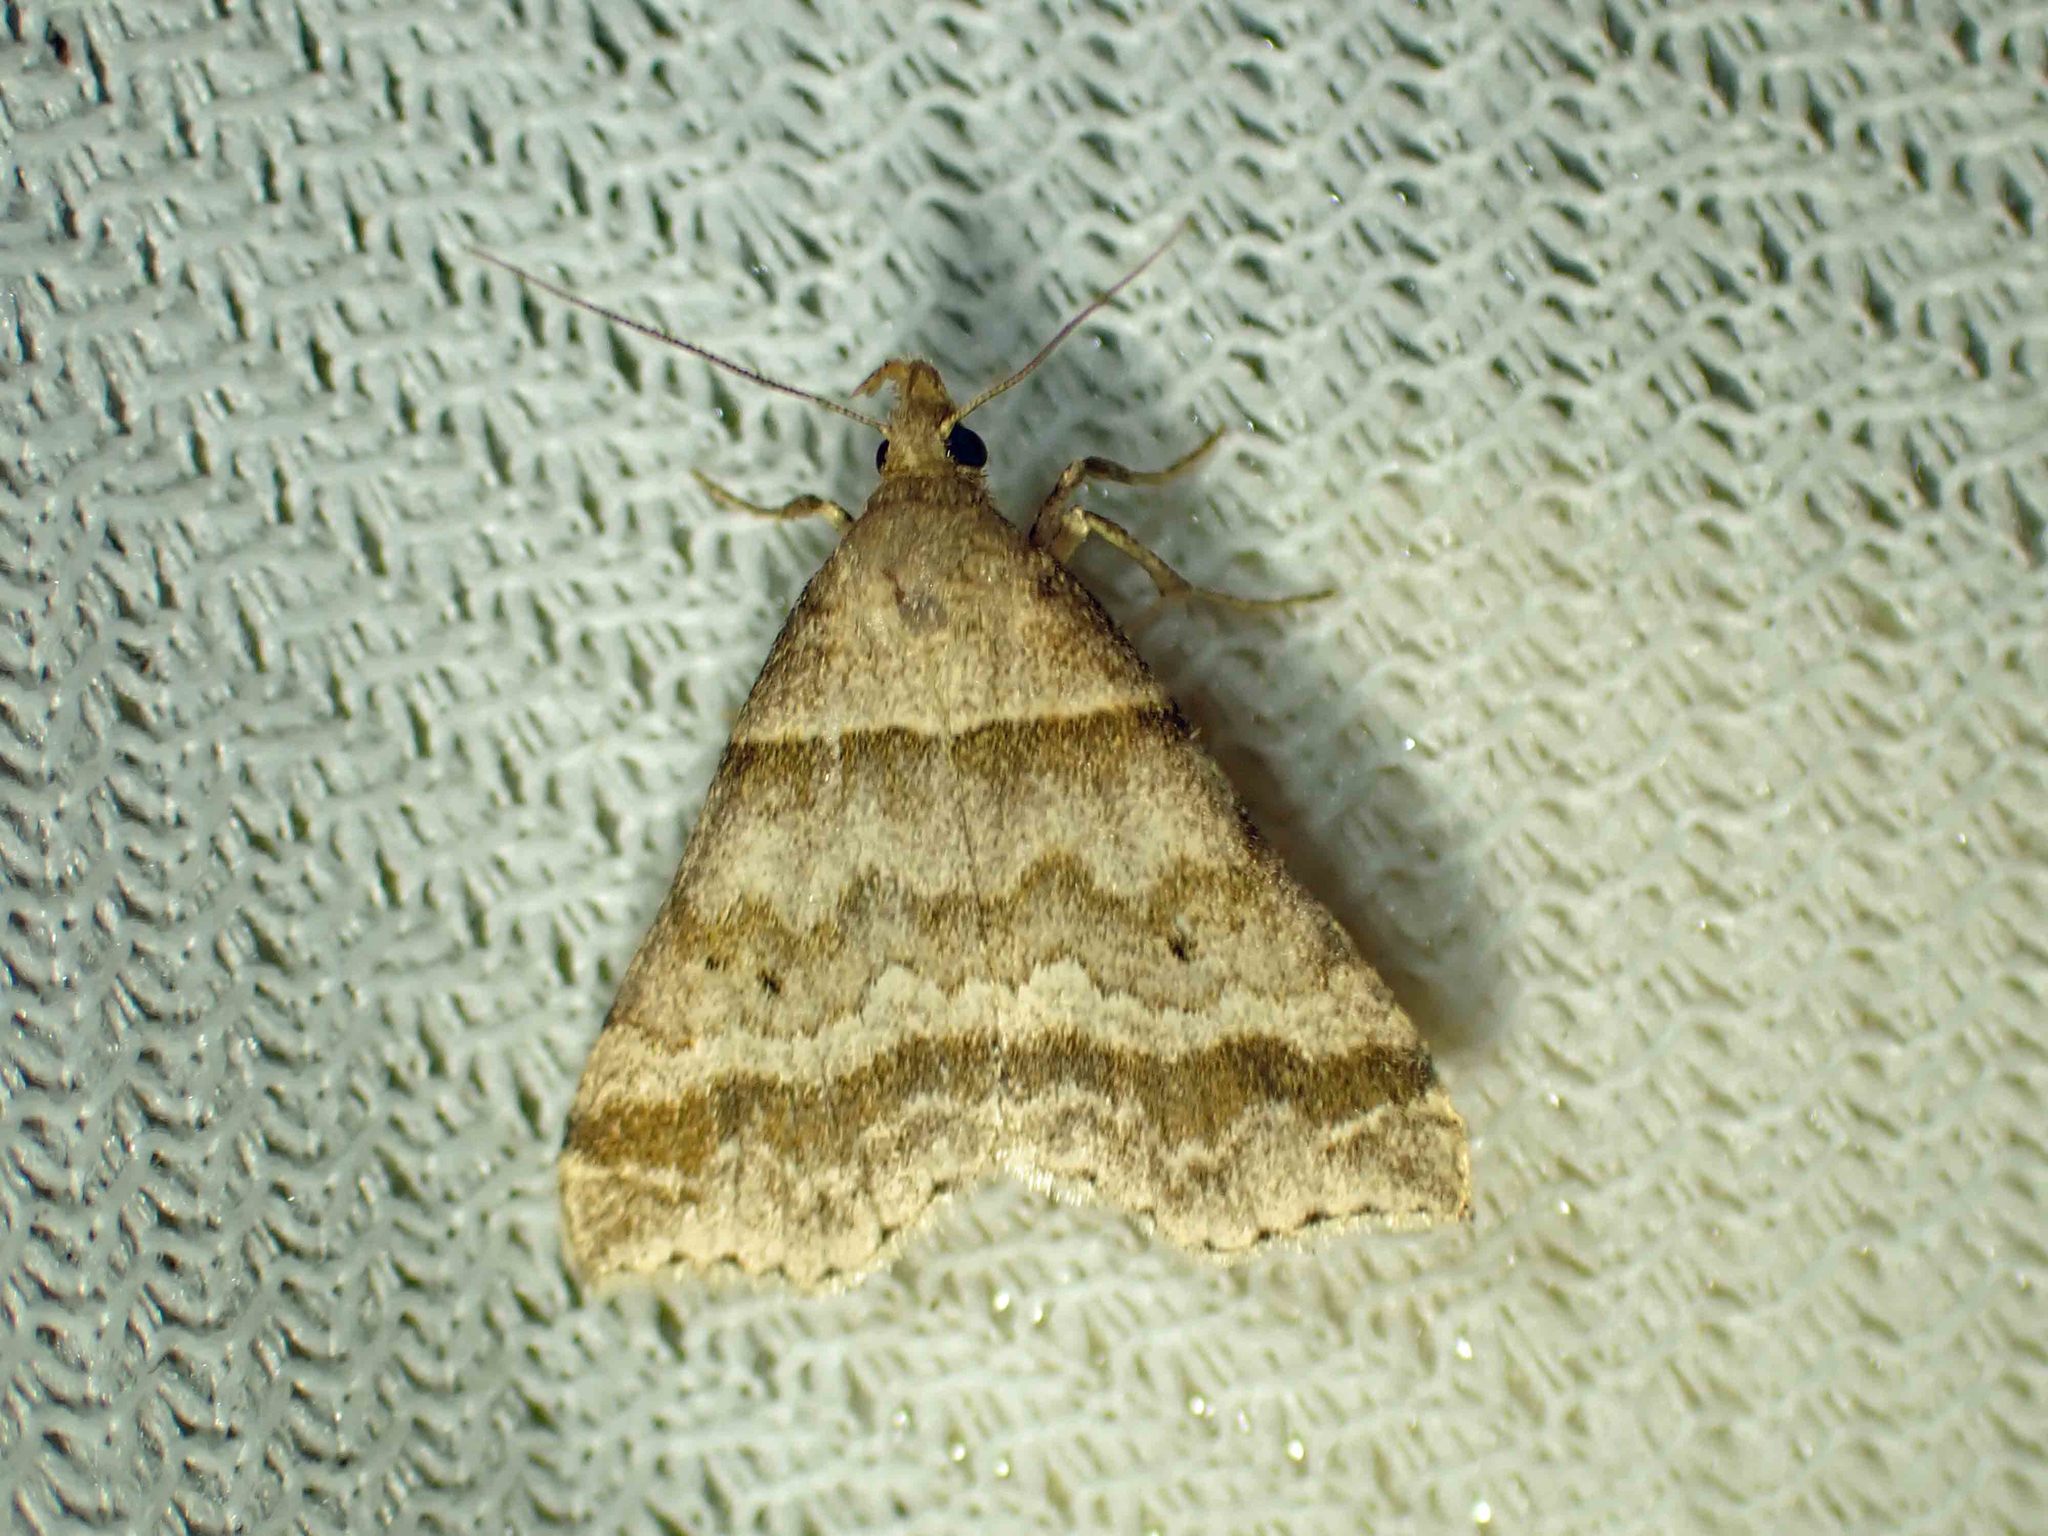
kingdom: Animalia
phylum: Arthropoda
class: Insecta
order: Lepidoptera
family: Erebidae
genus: Phaeolita
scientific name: Phaeolita pyramusalis
